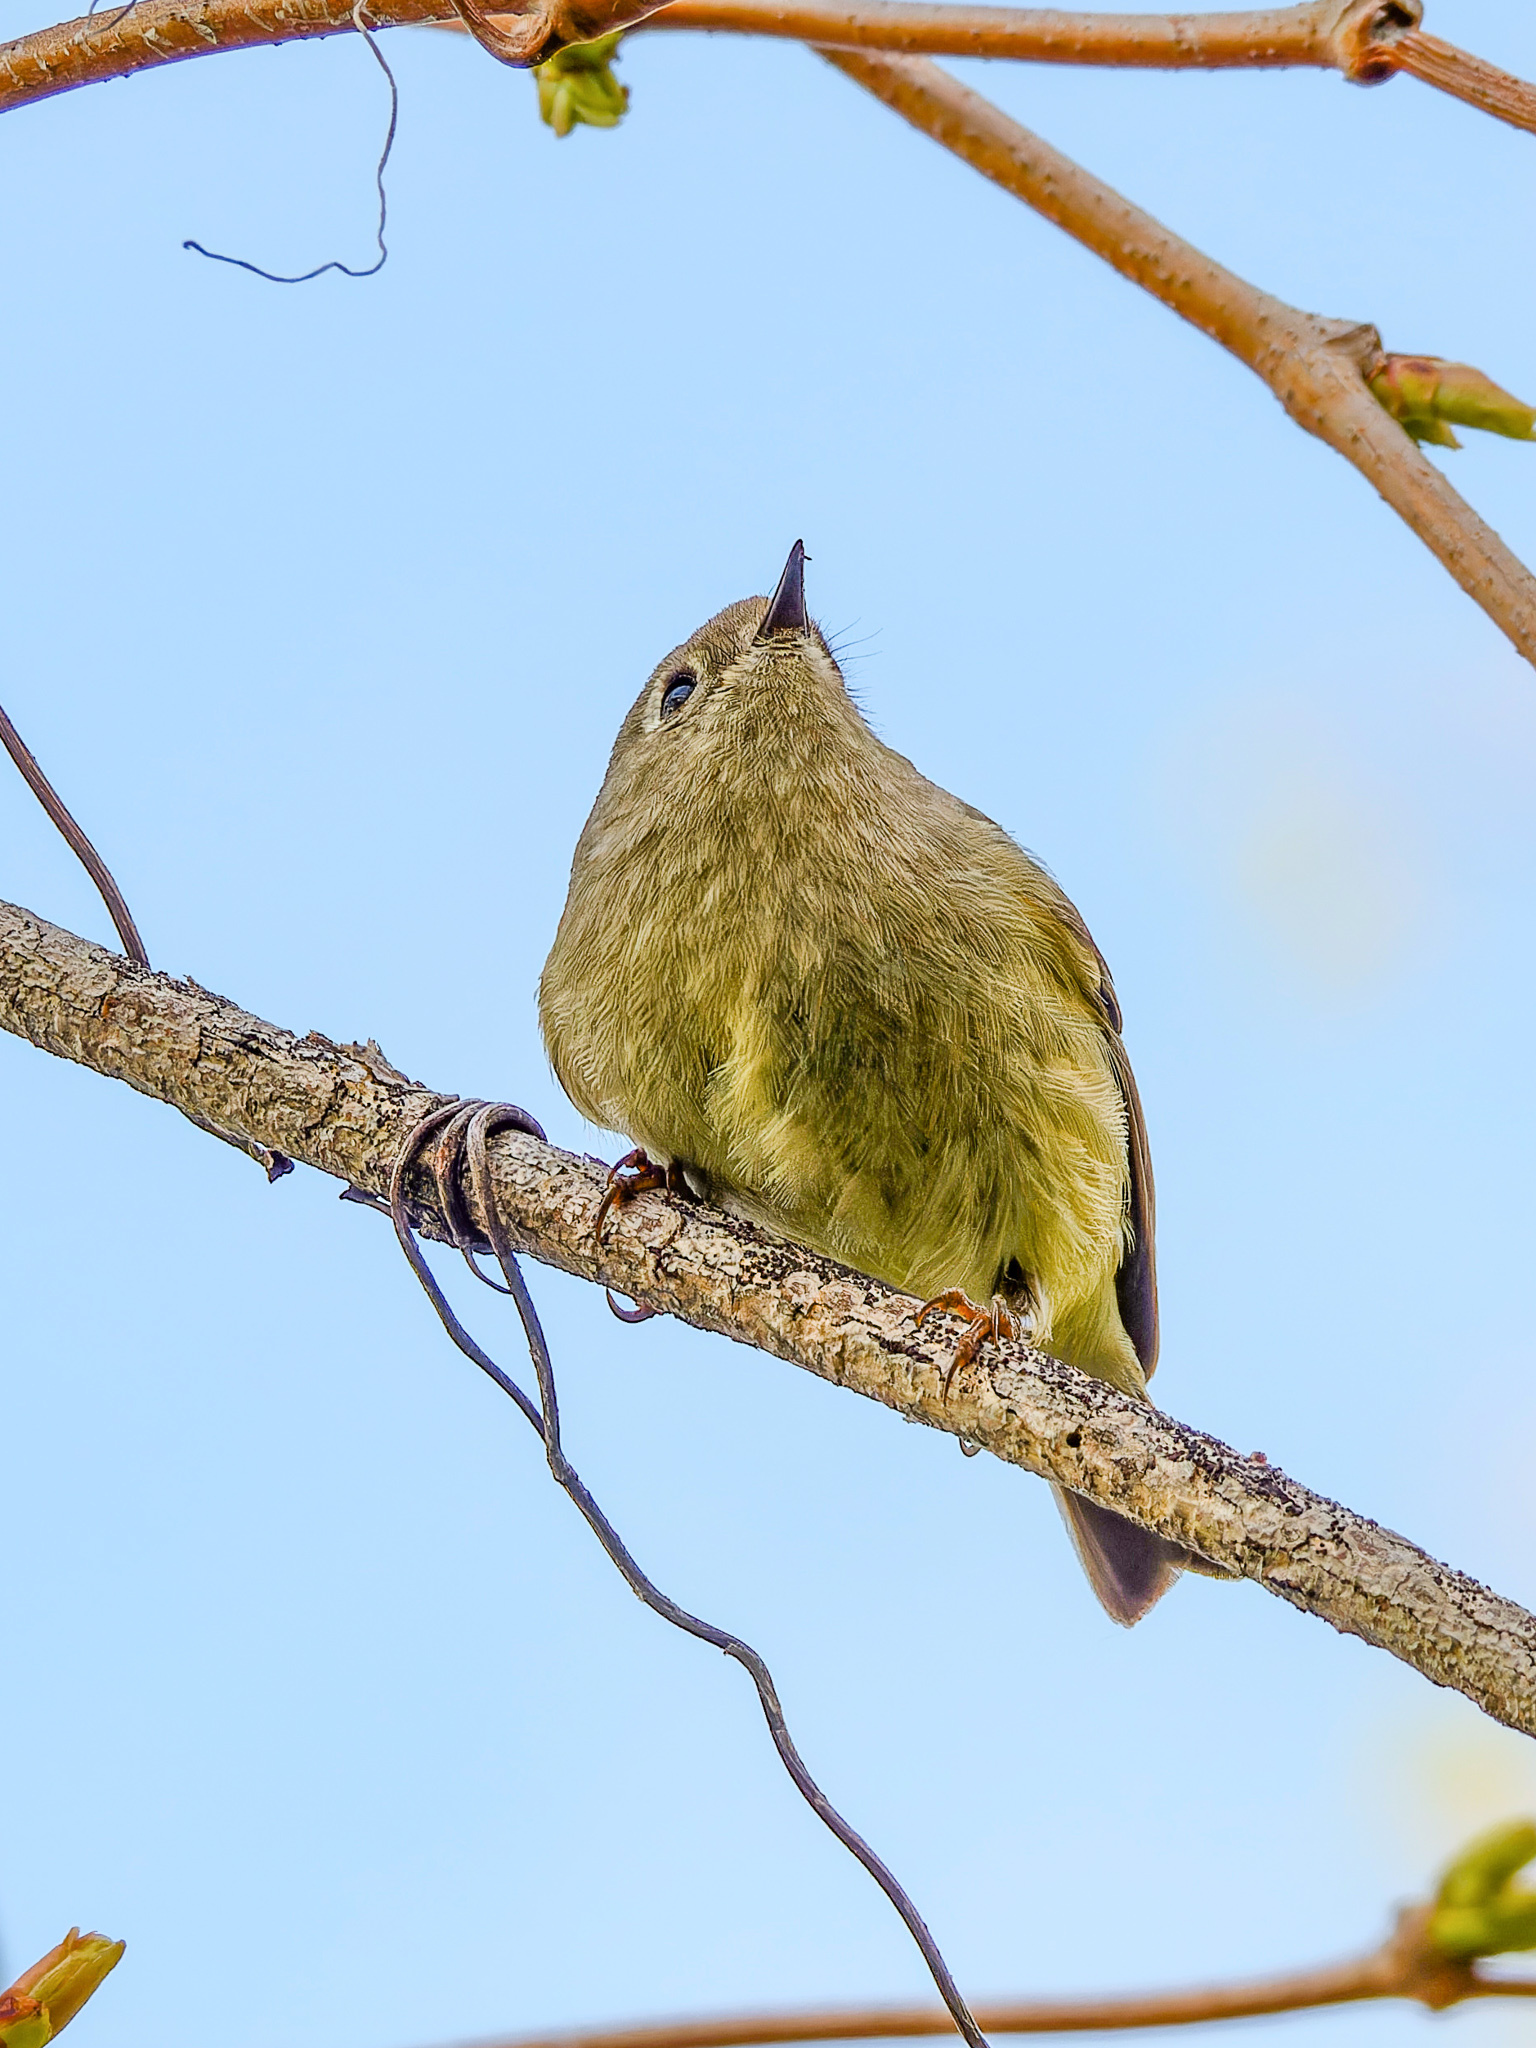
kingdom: Animalia
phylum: Chordata
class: Aves
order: Passeriformes
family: Regulidae
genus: Regulus
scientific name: Regulus calendula
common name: Ruby-crowned kinglet
